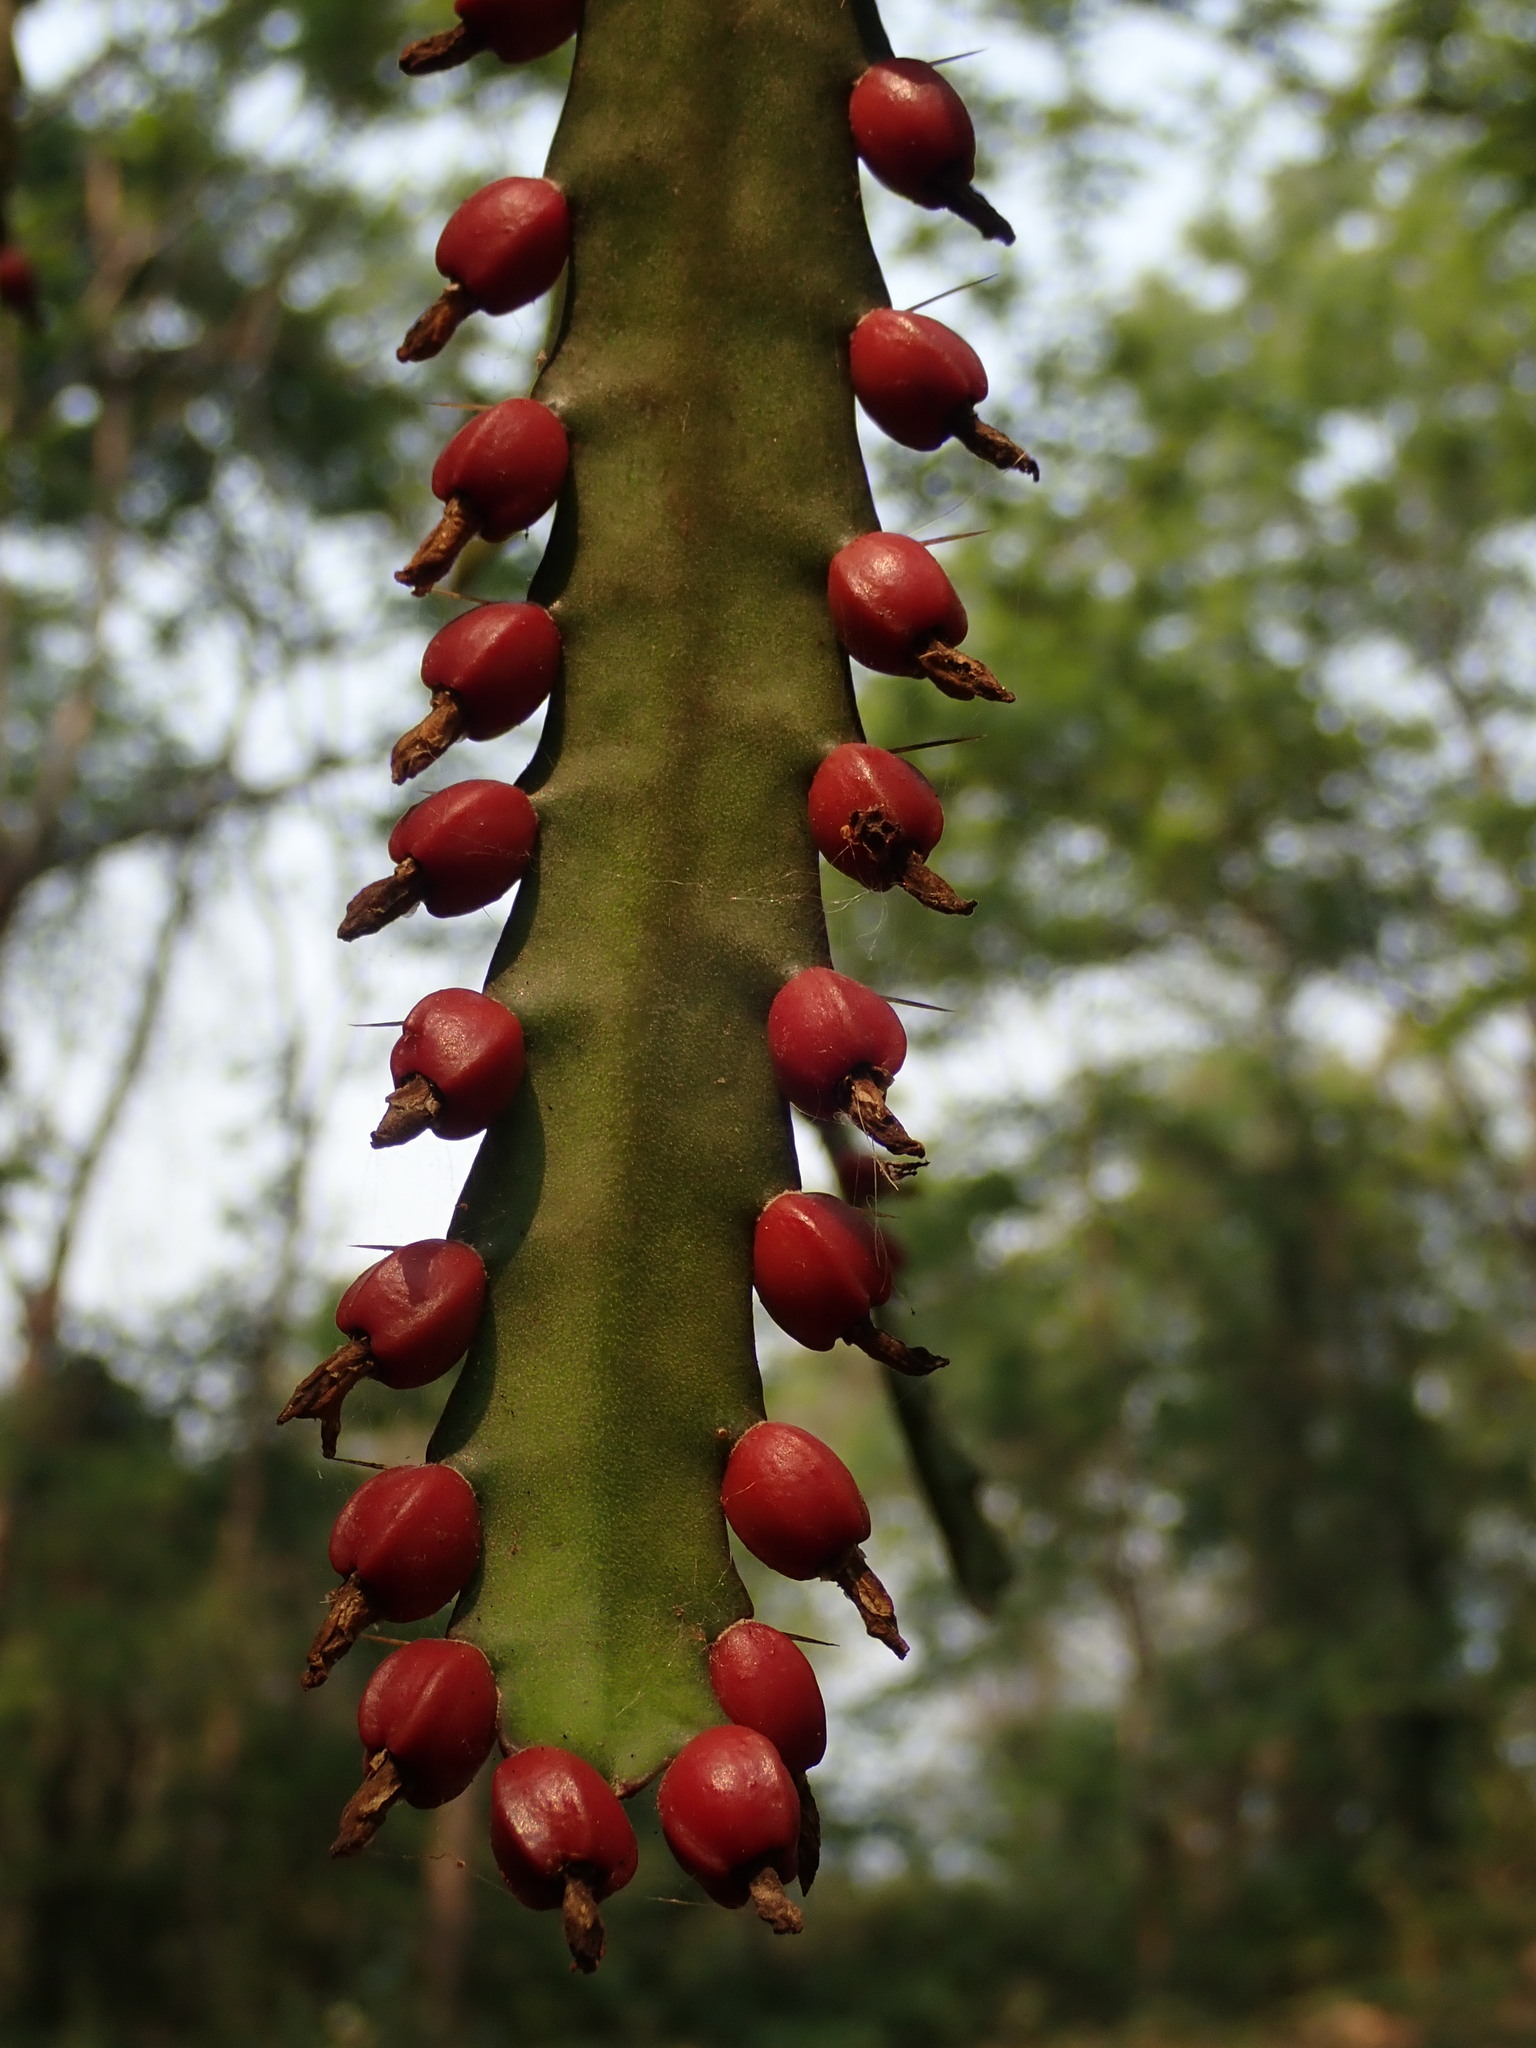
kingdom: Plantae
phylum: Tracheophyta
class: Magnoliopsida
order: Caryophyllales
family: Cactaceae
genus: Pfeiffera
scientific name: Pfeiffera monacantha
